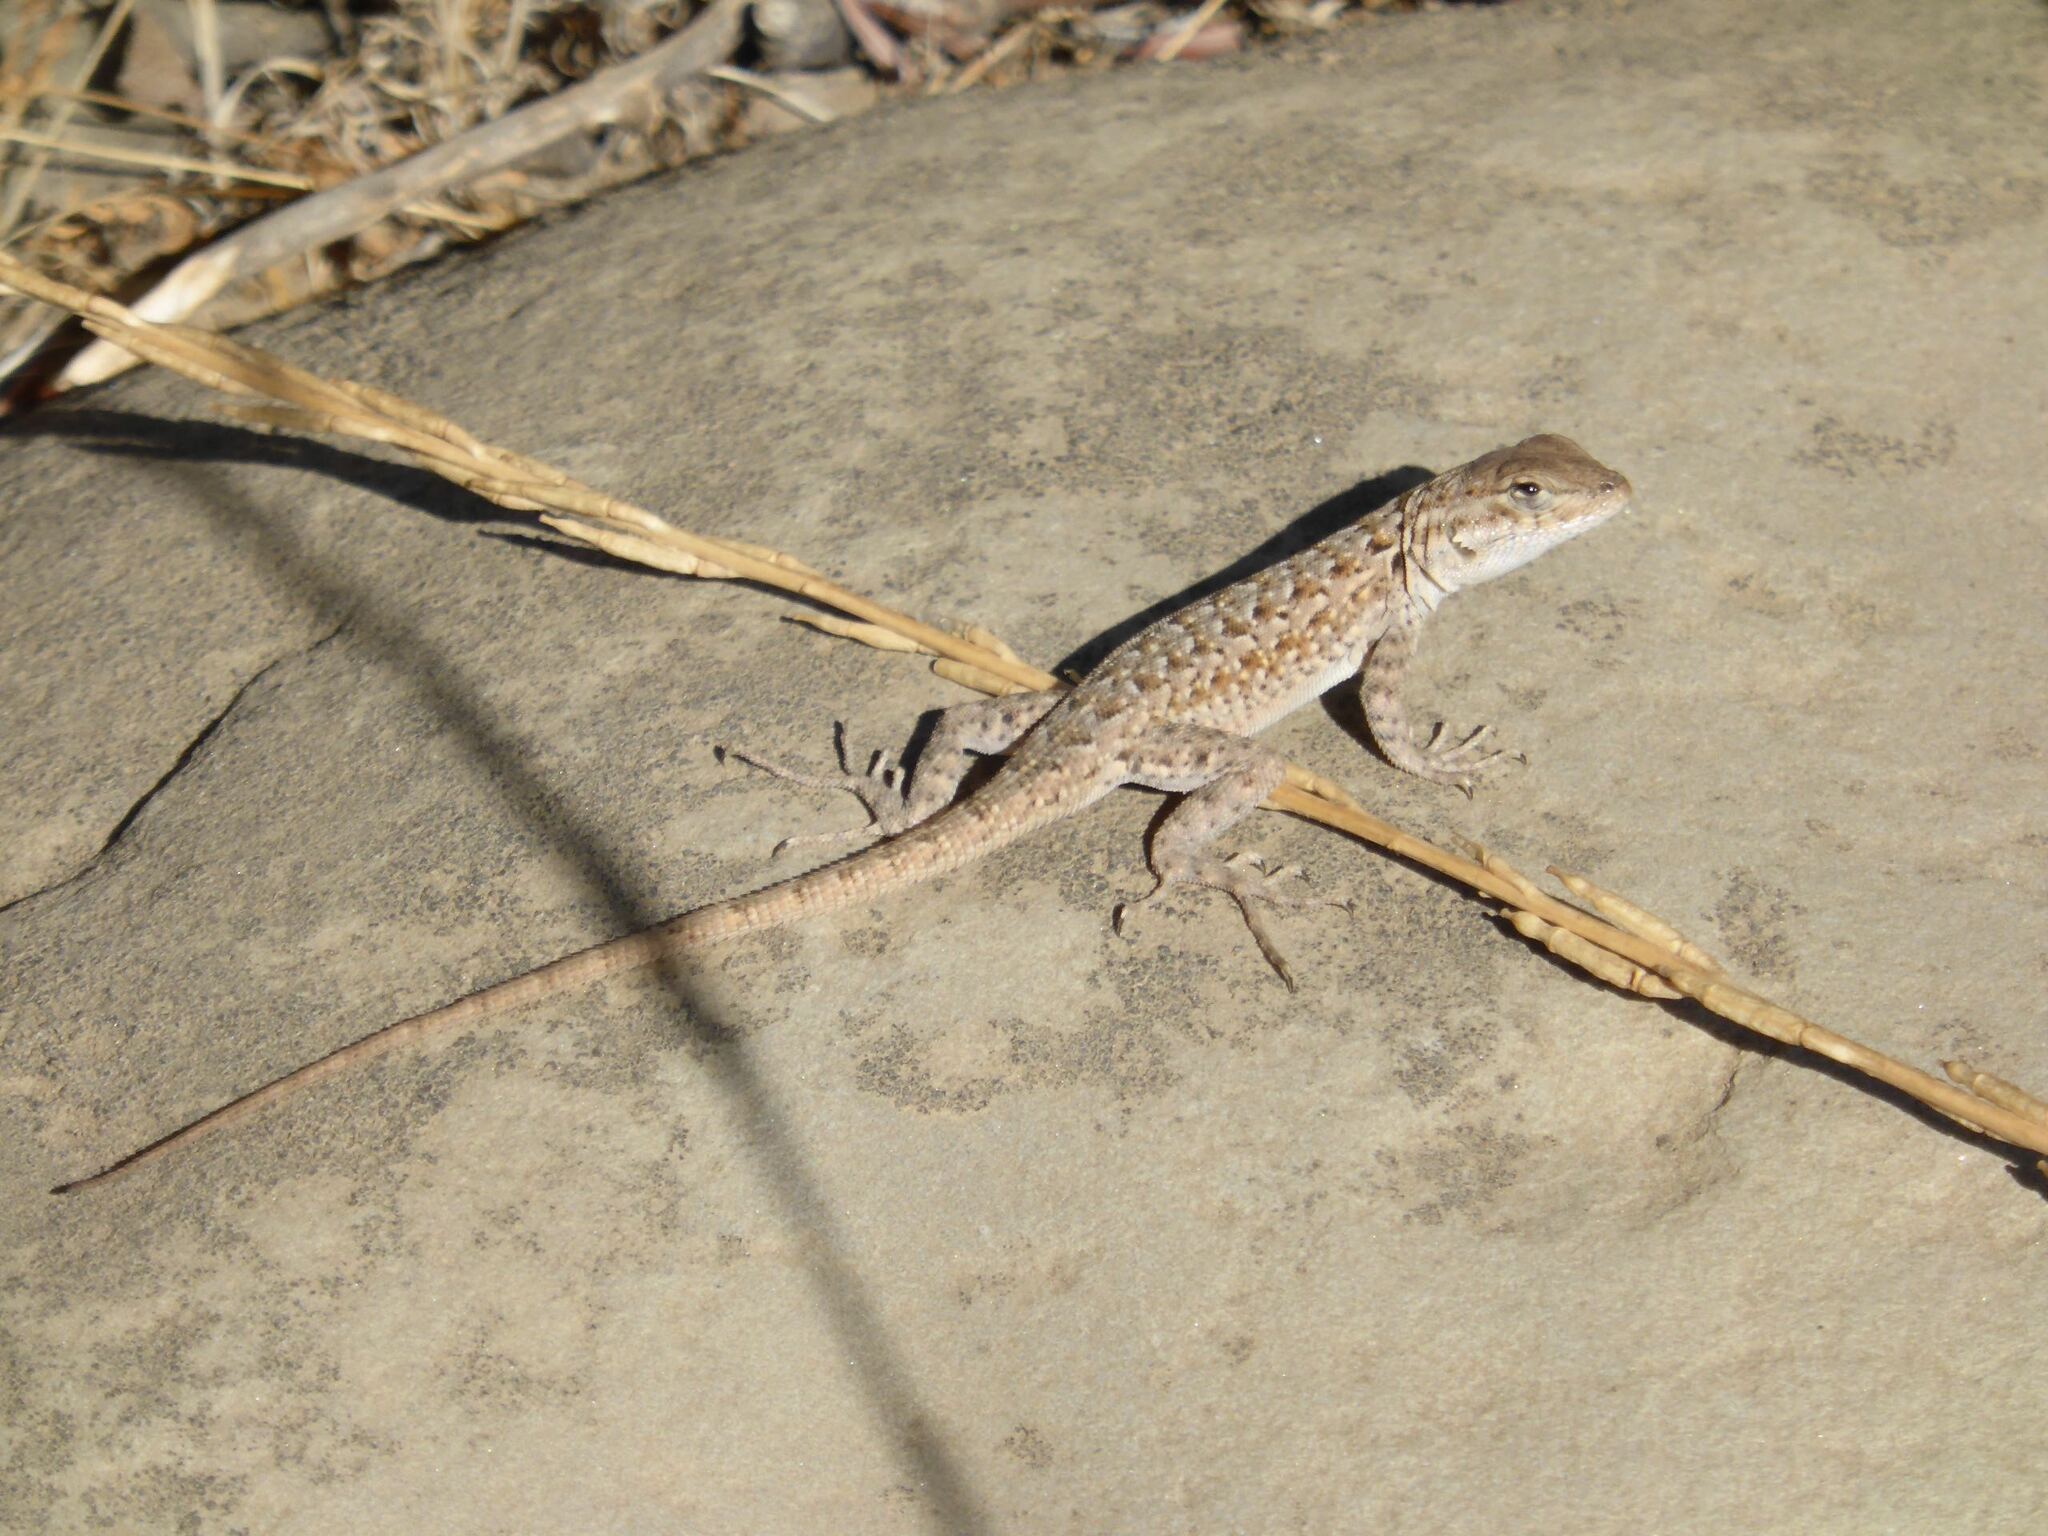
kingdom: Animalia
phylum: Chordata
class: Squamata
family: Phrynosomatidae
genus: Uta
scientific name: Uta stansburiana
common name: Side-blotched lizard
